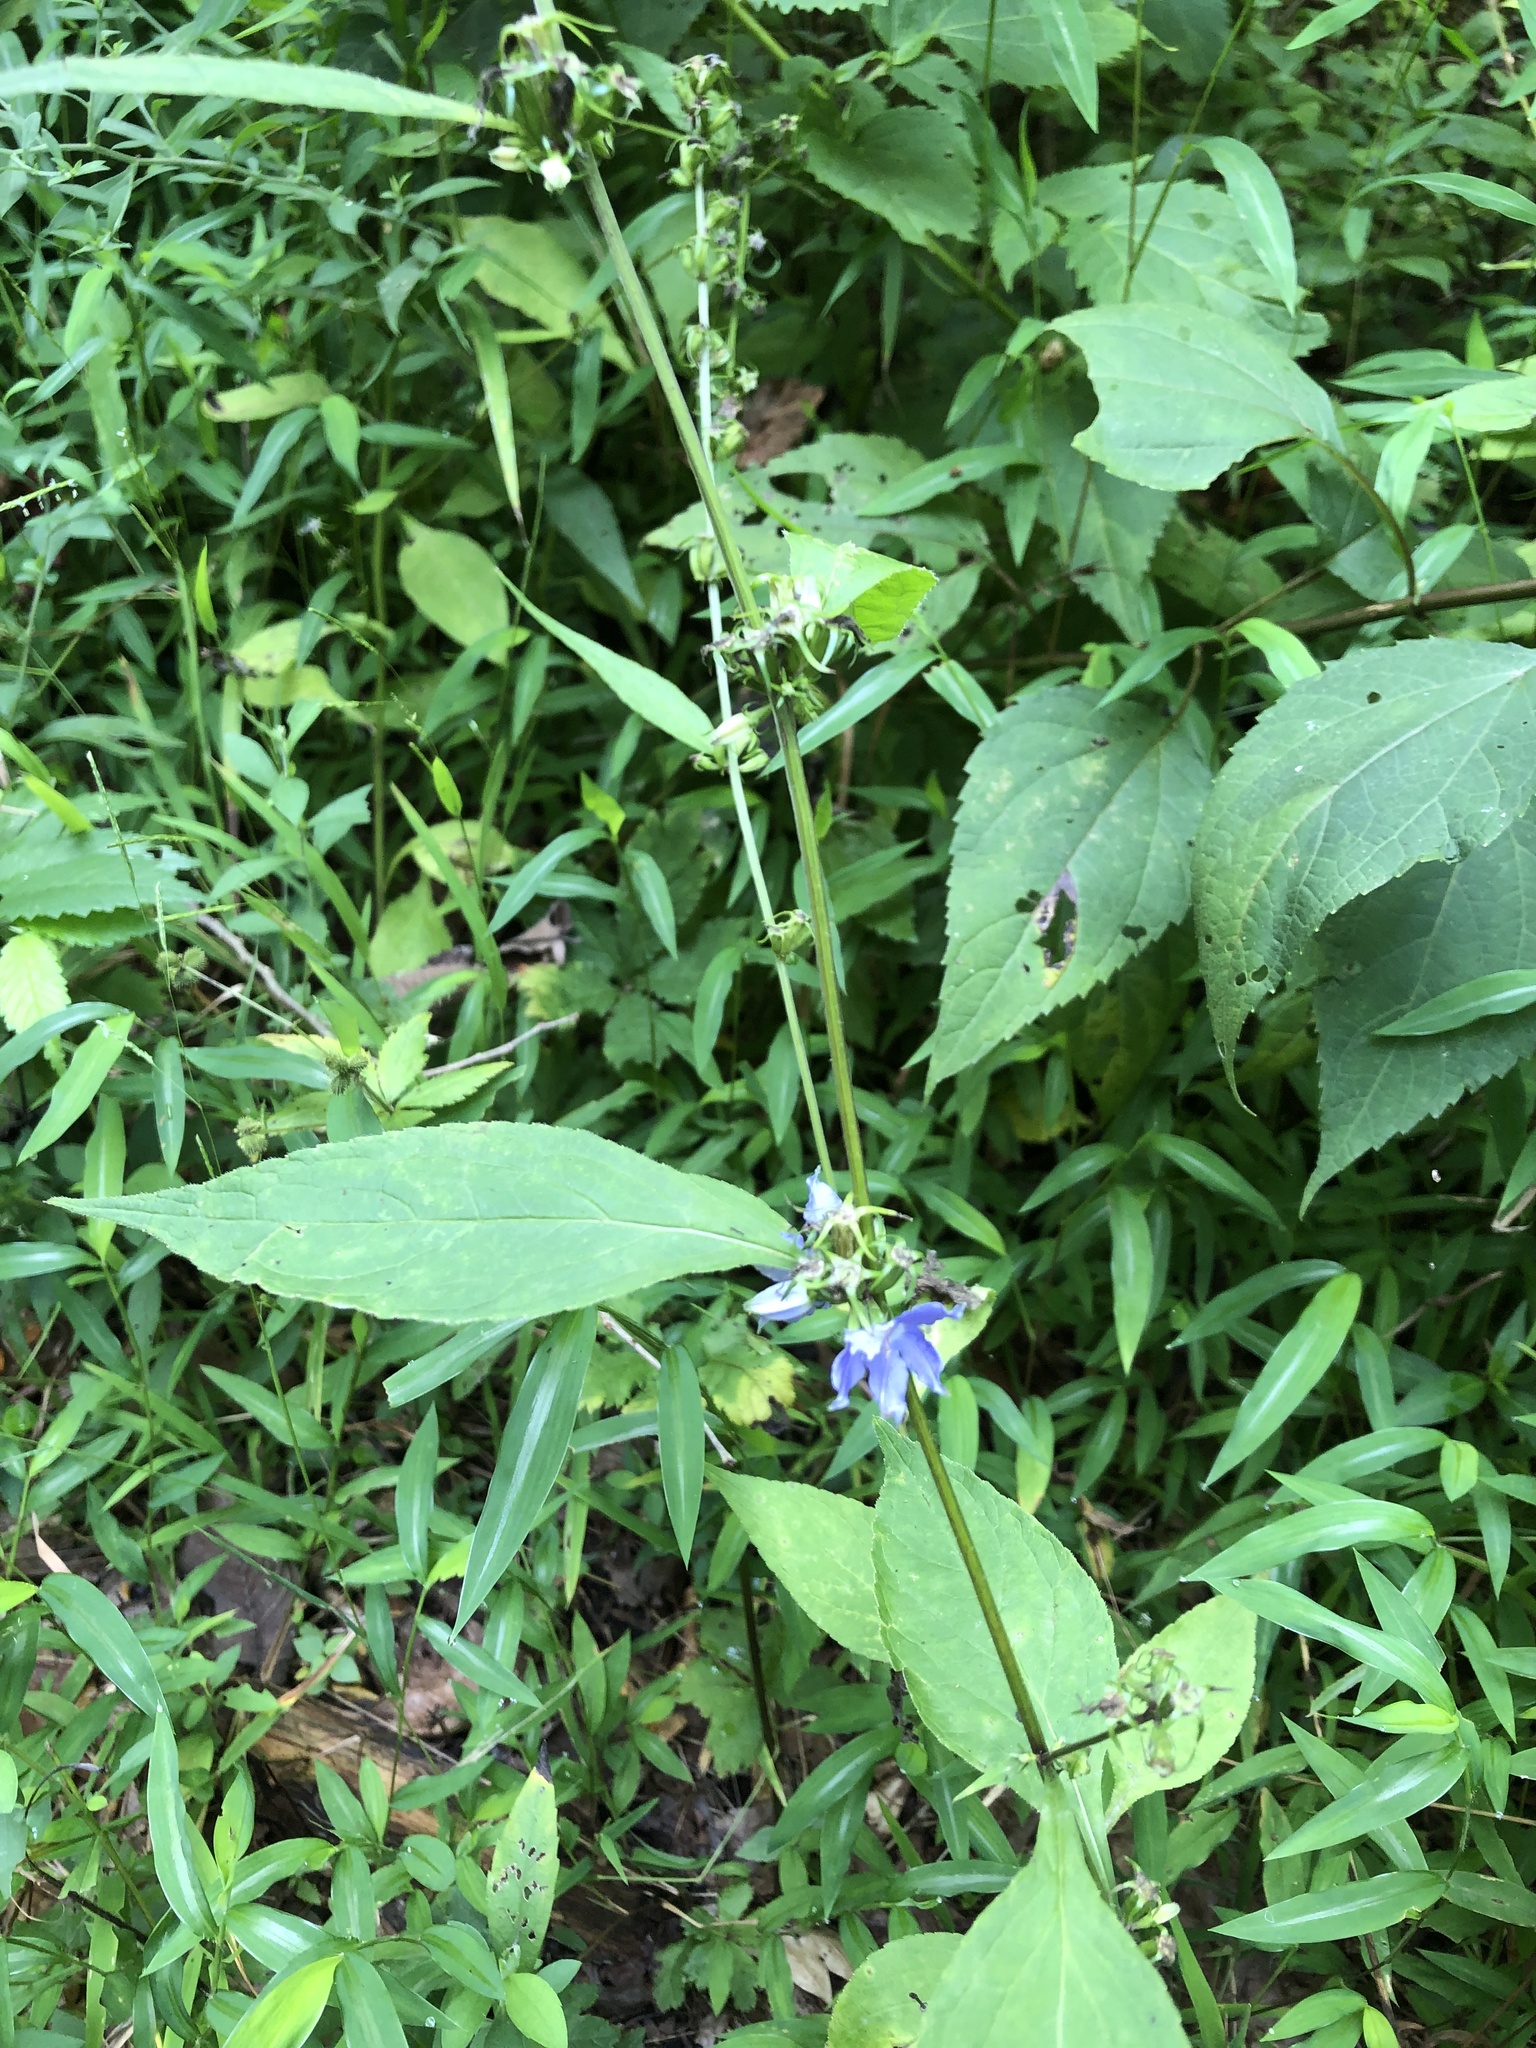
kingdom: Plantae
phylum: Tracheophyta
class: Magnoliopsida
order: Asterales
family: Campanulaceae
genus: Campanulastrum
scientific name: Campanulastrum americanum
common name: American bellflower
